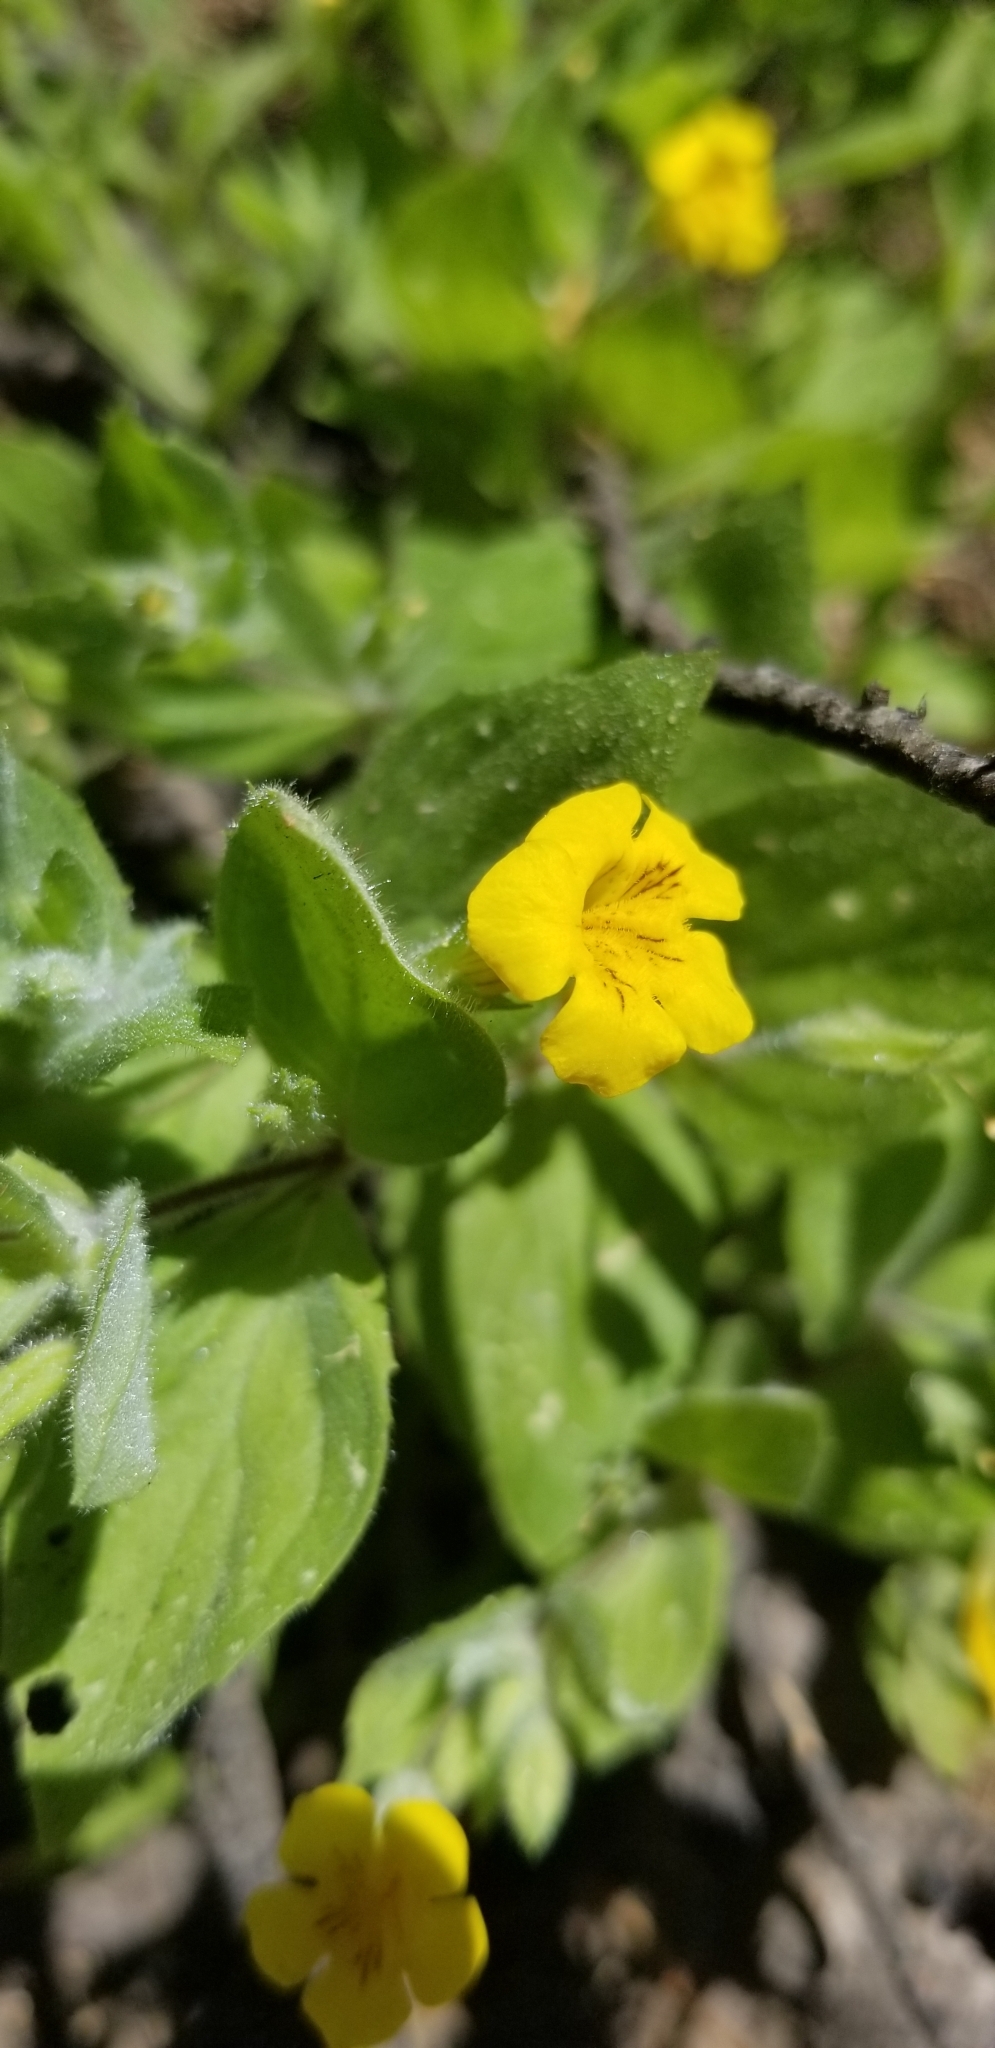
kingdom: Plantae
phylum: Tracheophyta
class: Magnoliopsida
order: Lamiales
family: Phrymaceae
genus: Erythranthe
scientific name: Erythranthe moschata
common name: Muskflower
